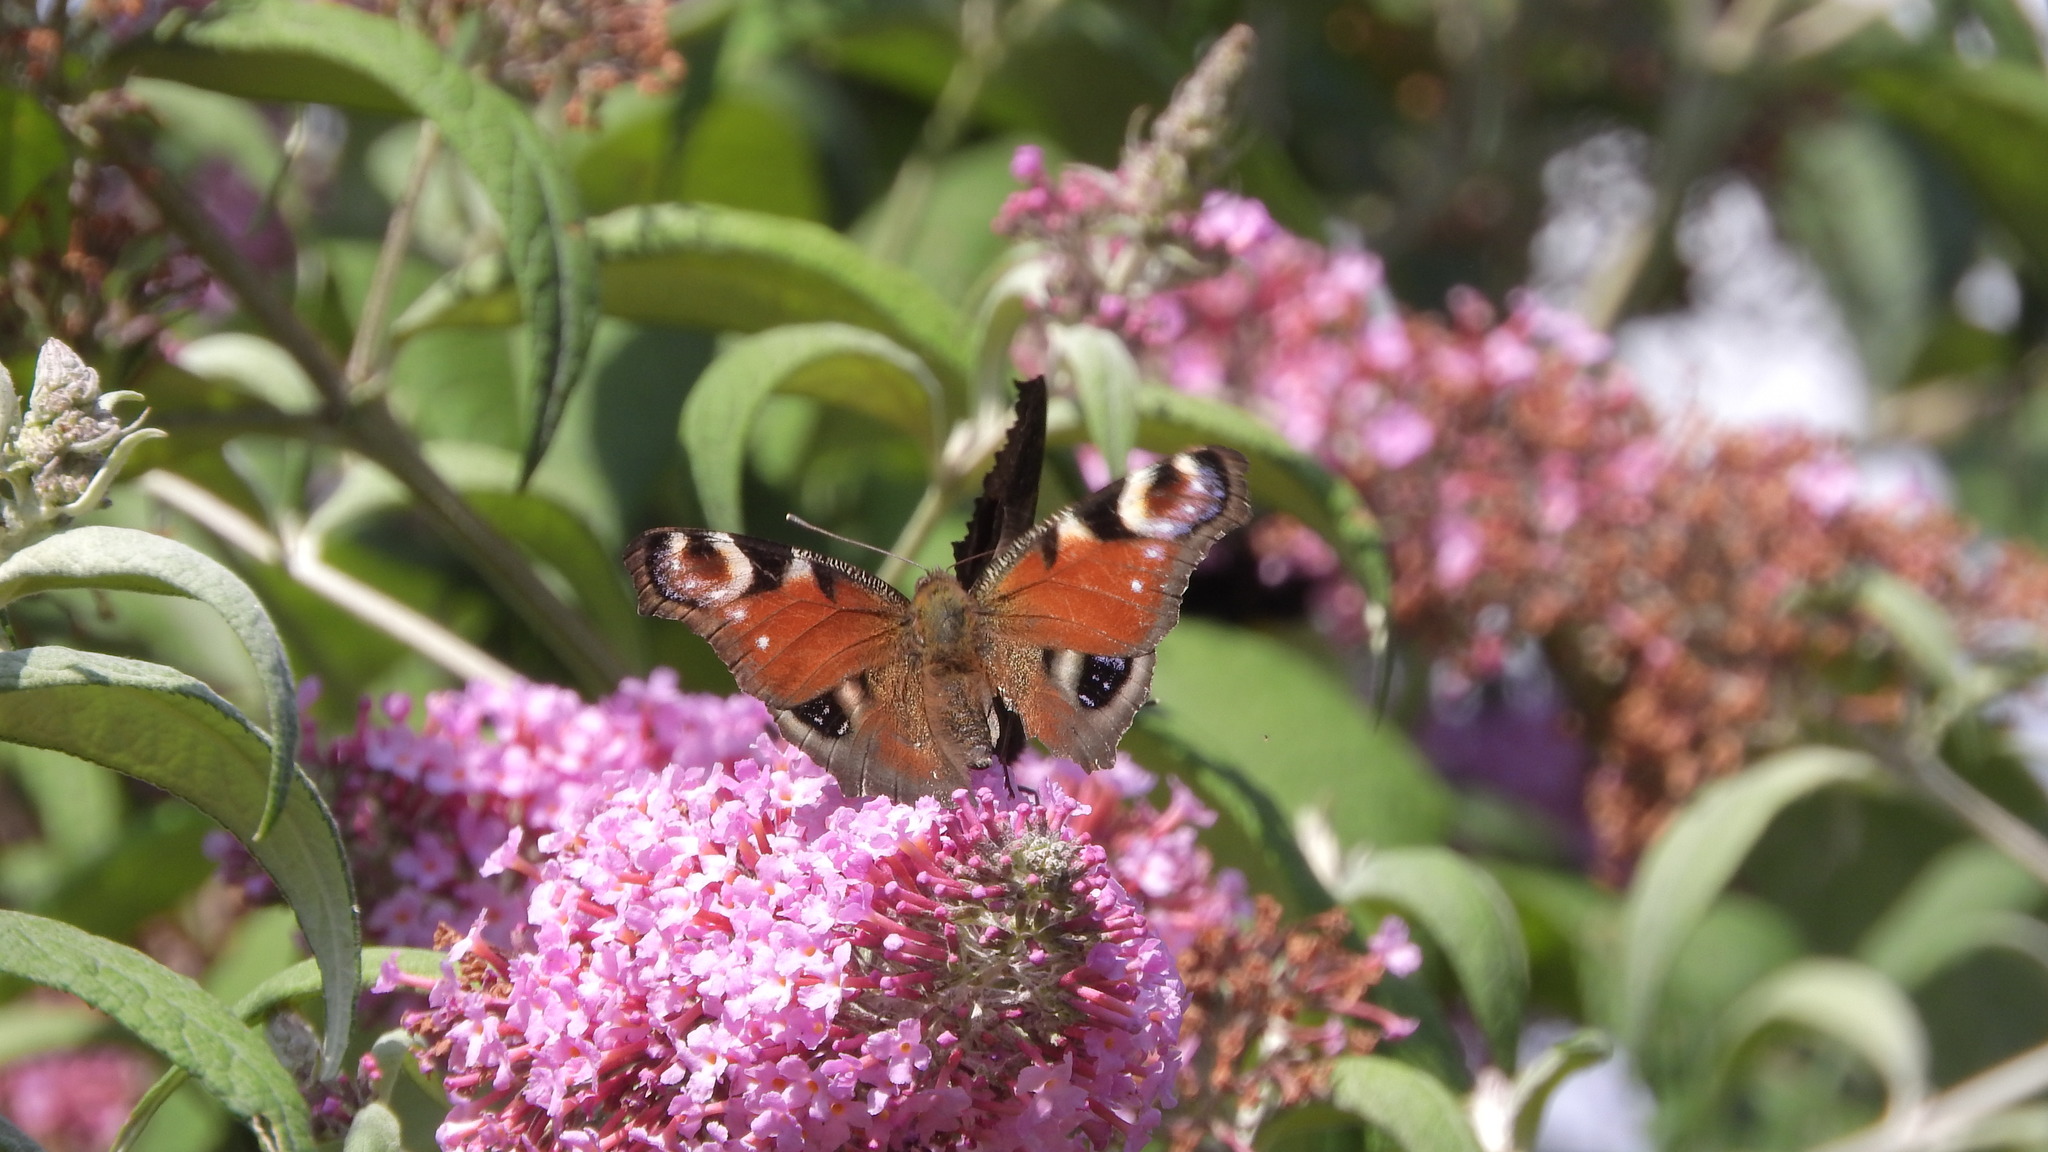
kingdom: Animalia
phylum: Arthropoda
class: Insecta
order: Lepidoptera
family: Nymphalidae
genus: Aglais
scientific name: Aglais io
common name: Peacock
